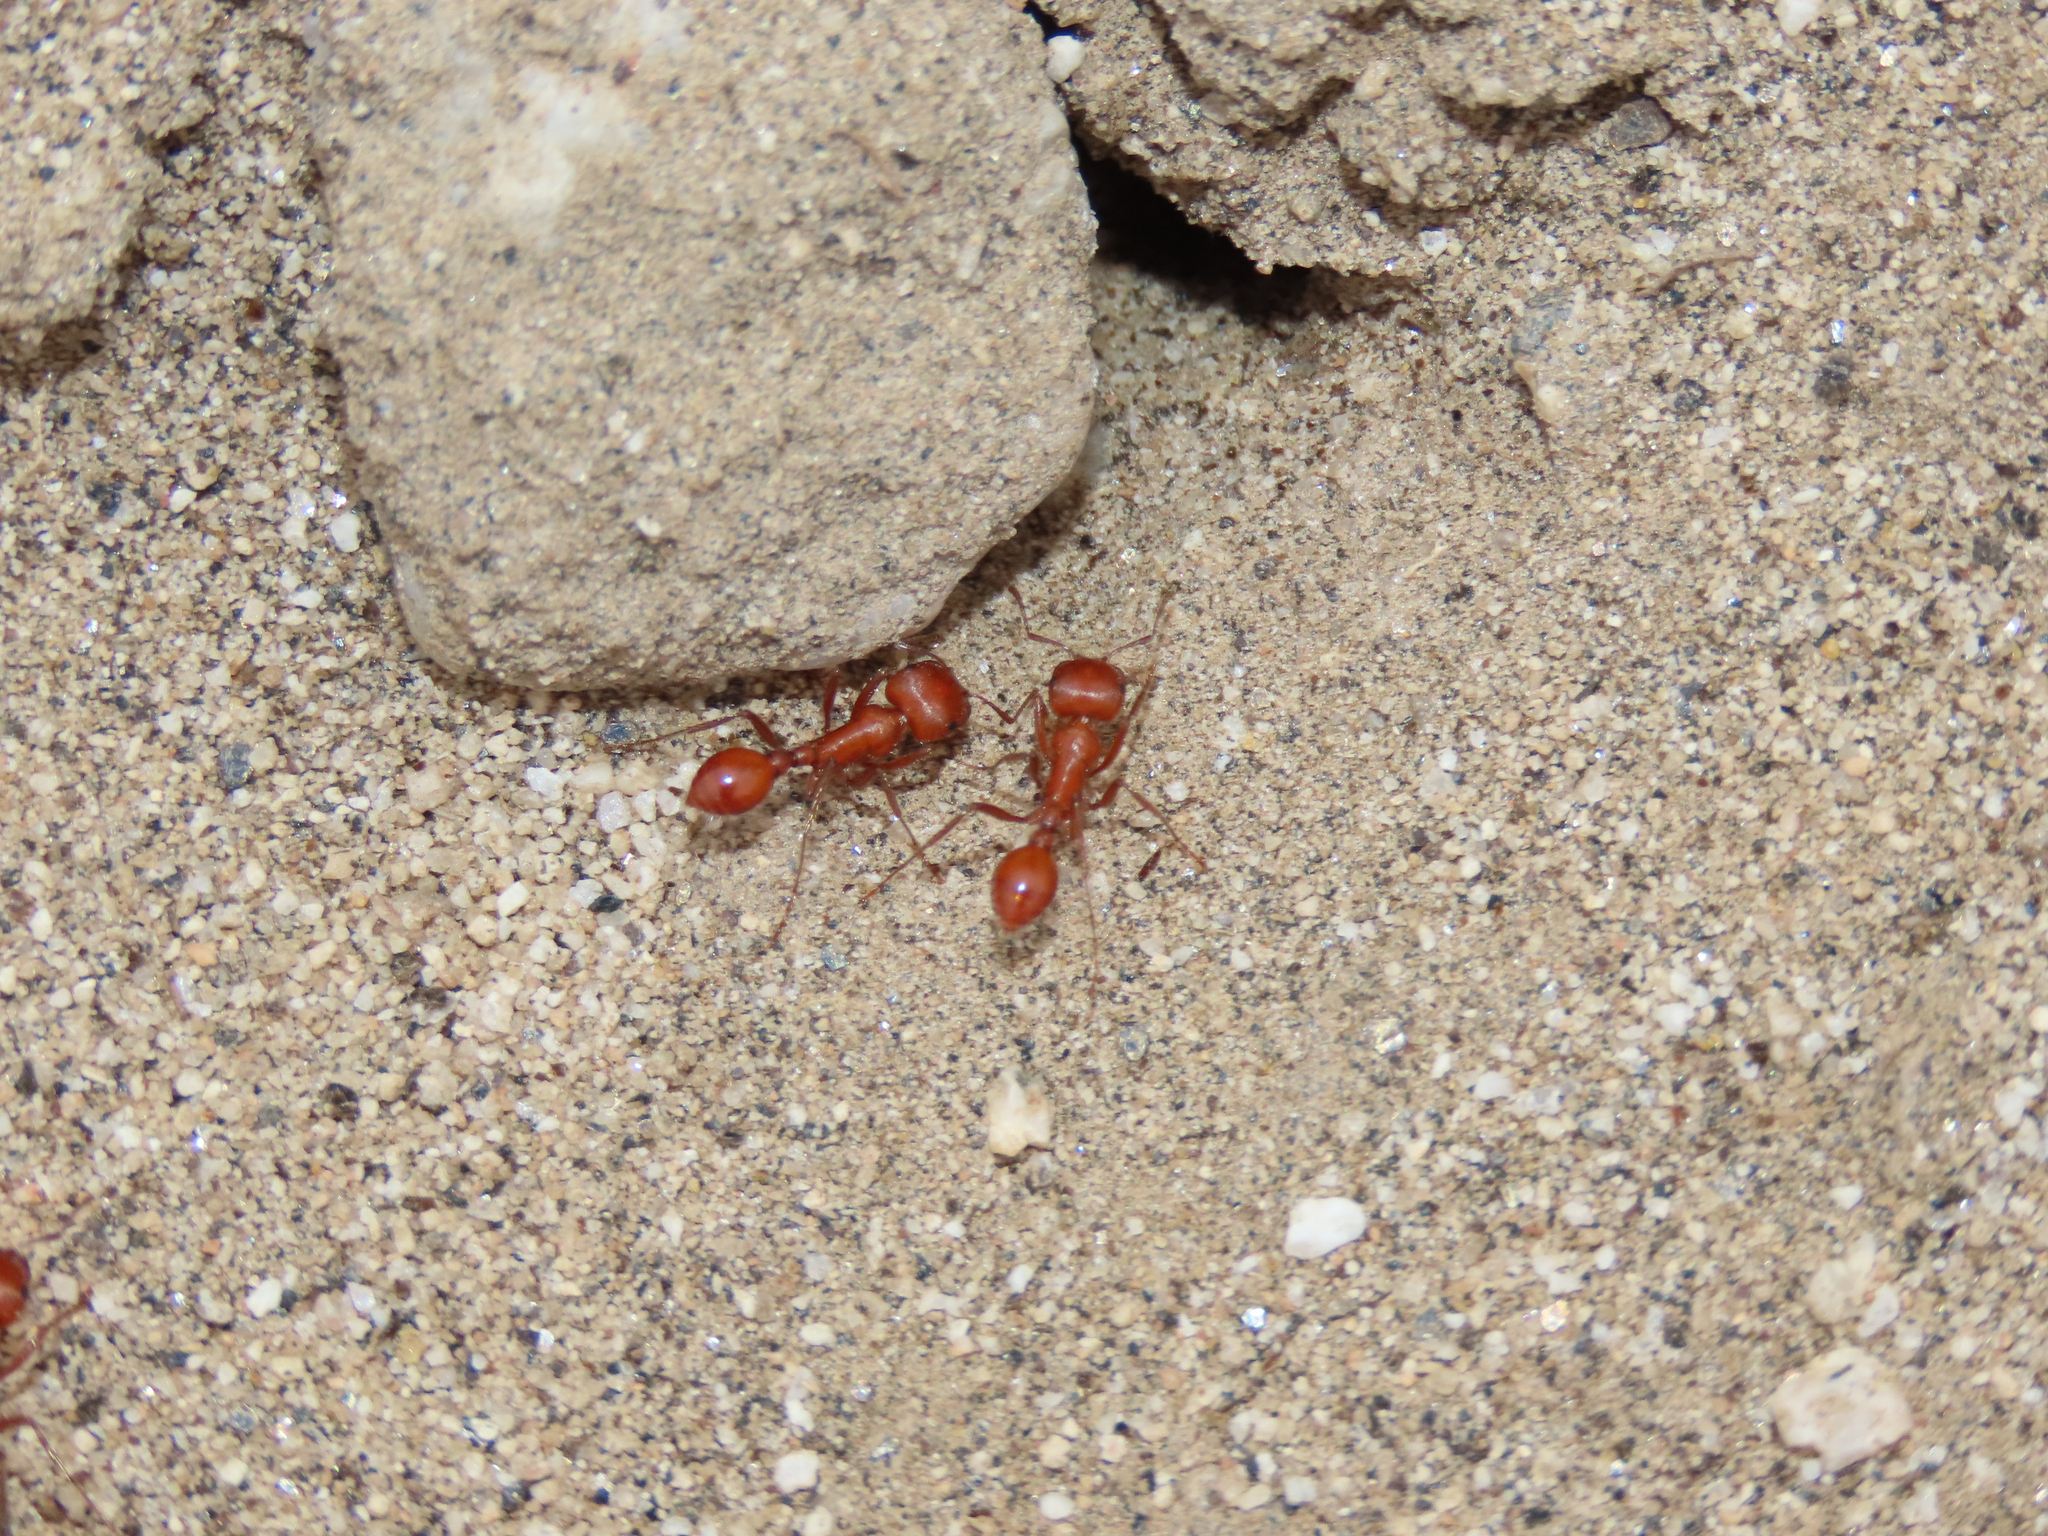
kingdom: Animalia
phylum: Arthropoda
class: Insecta
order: Hymenoptera
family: Formicidae
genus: Pogonomyrmex
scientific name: Pogonomyrmex maricopa
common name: Maricopa harvester ant
